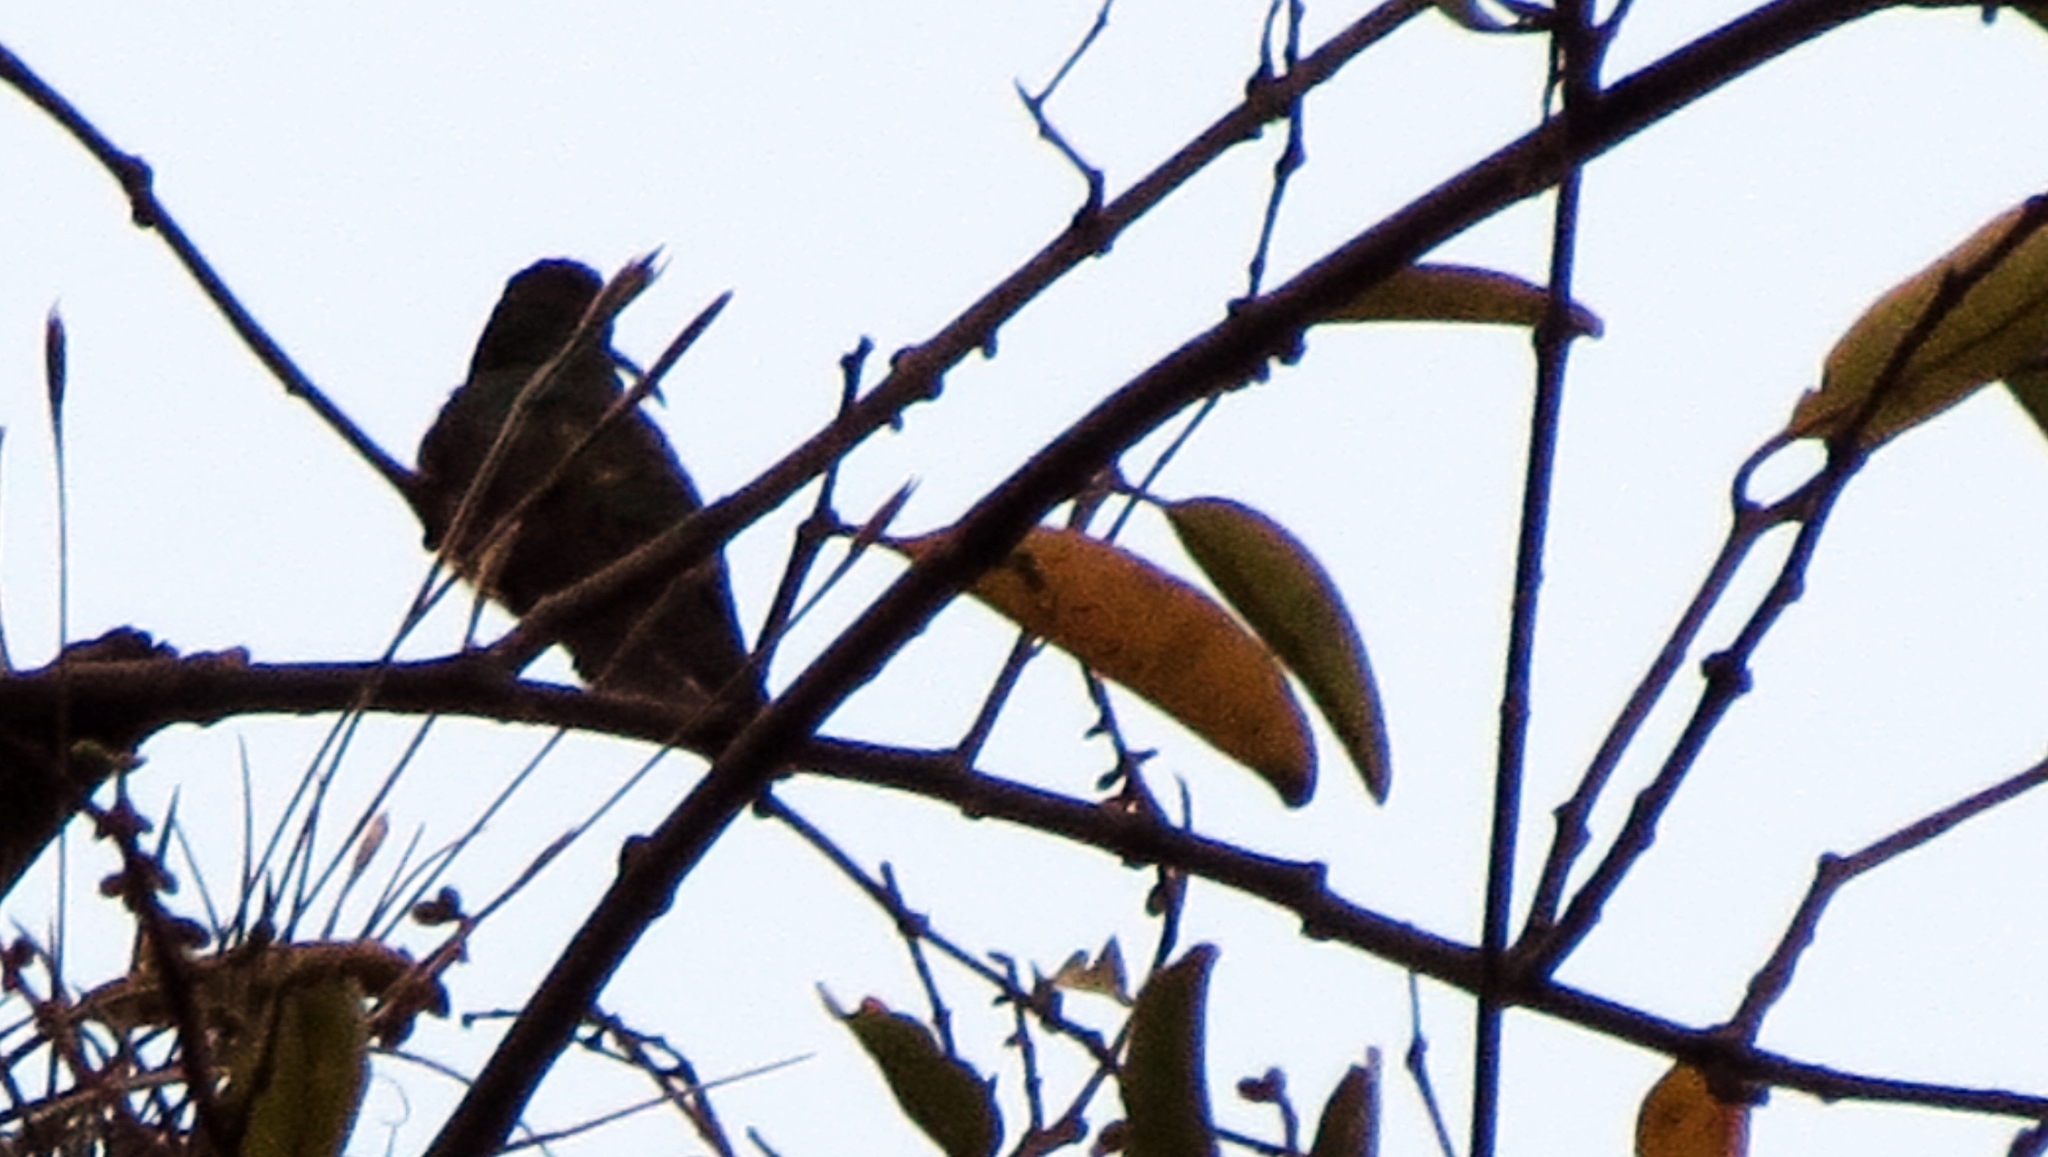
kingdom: Animalia
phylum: Chordata
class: Aves
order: Apodiformes
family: Trochilidae
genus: Amazilia
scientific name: Amazilia tzacatl
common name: Rufous-tailed hummingbird
